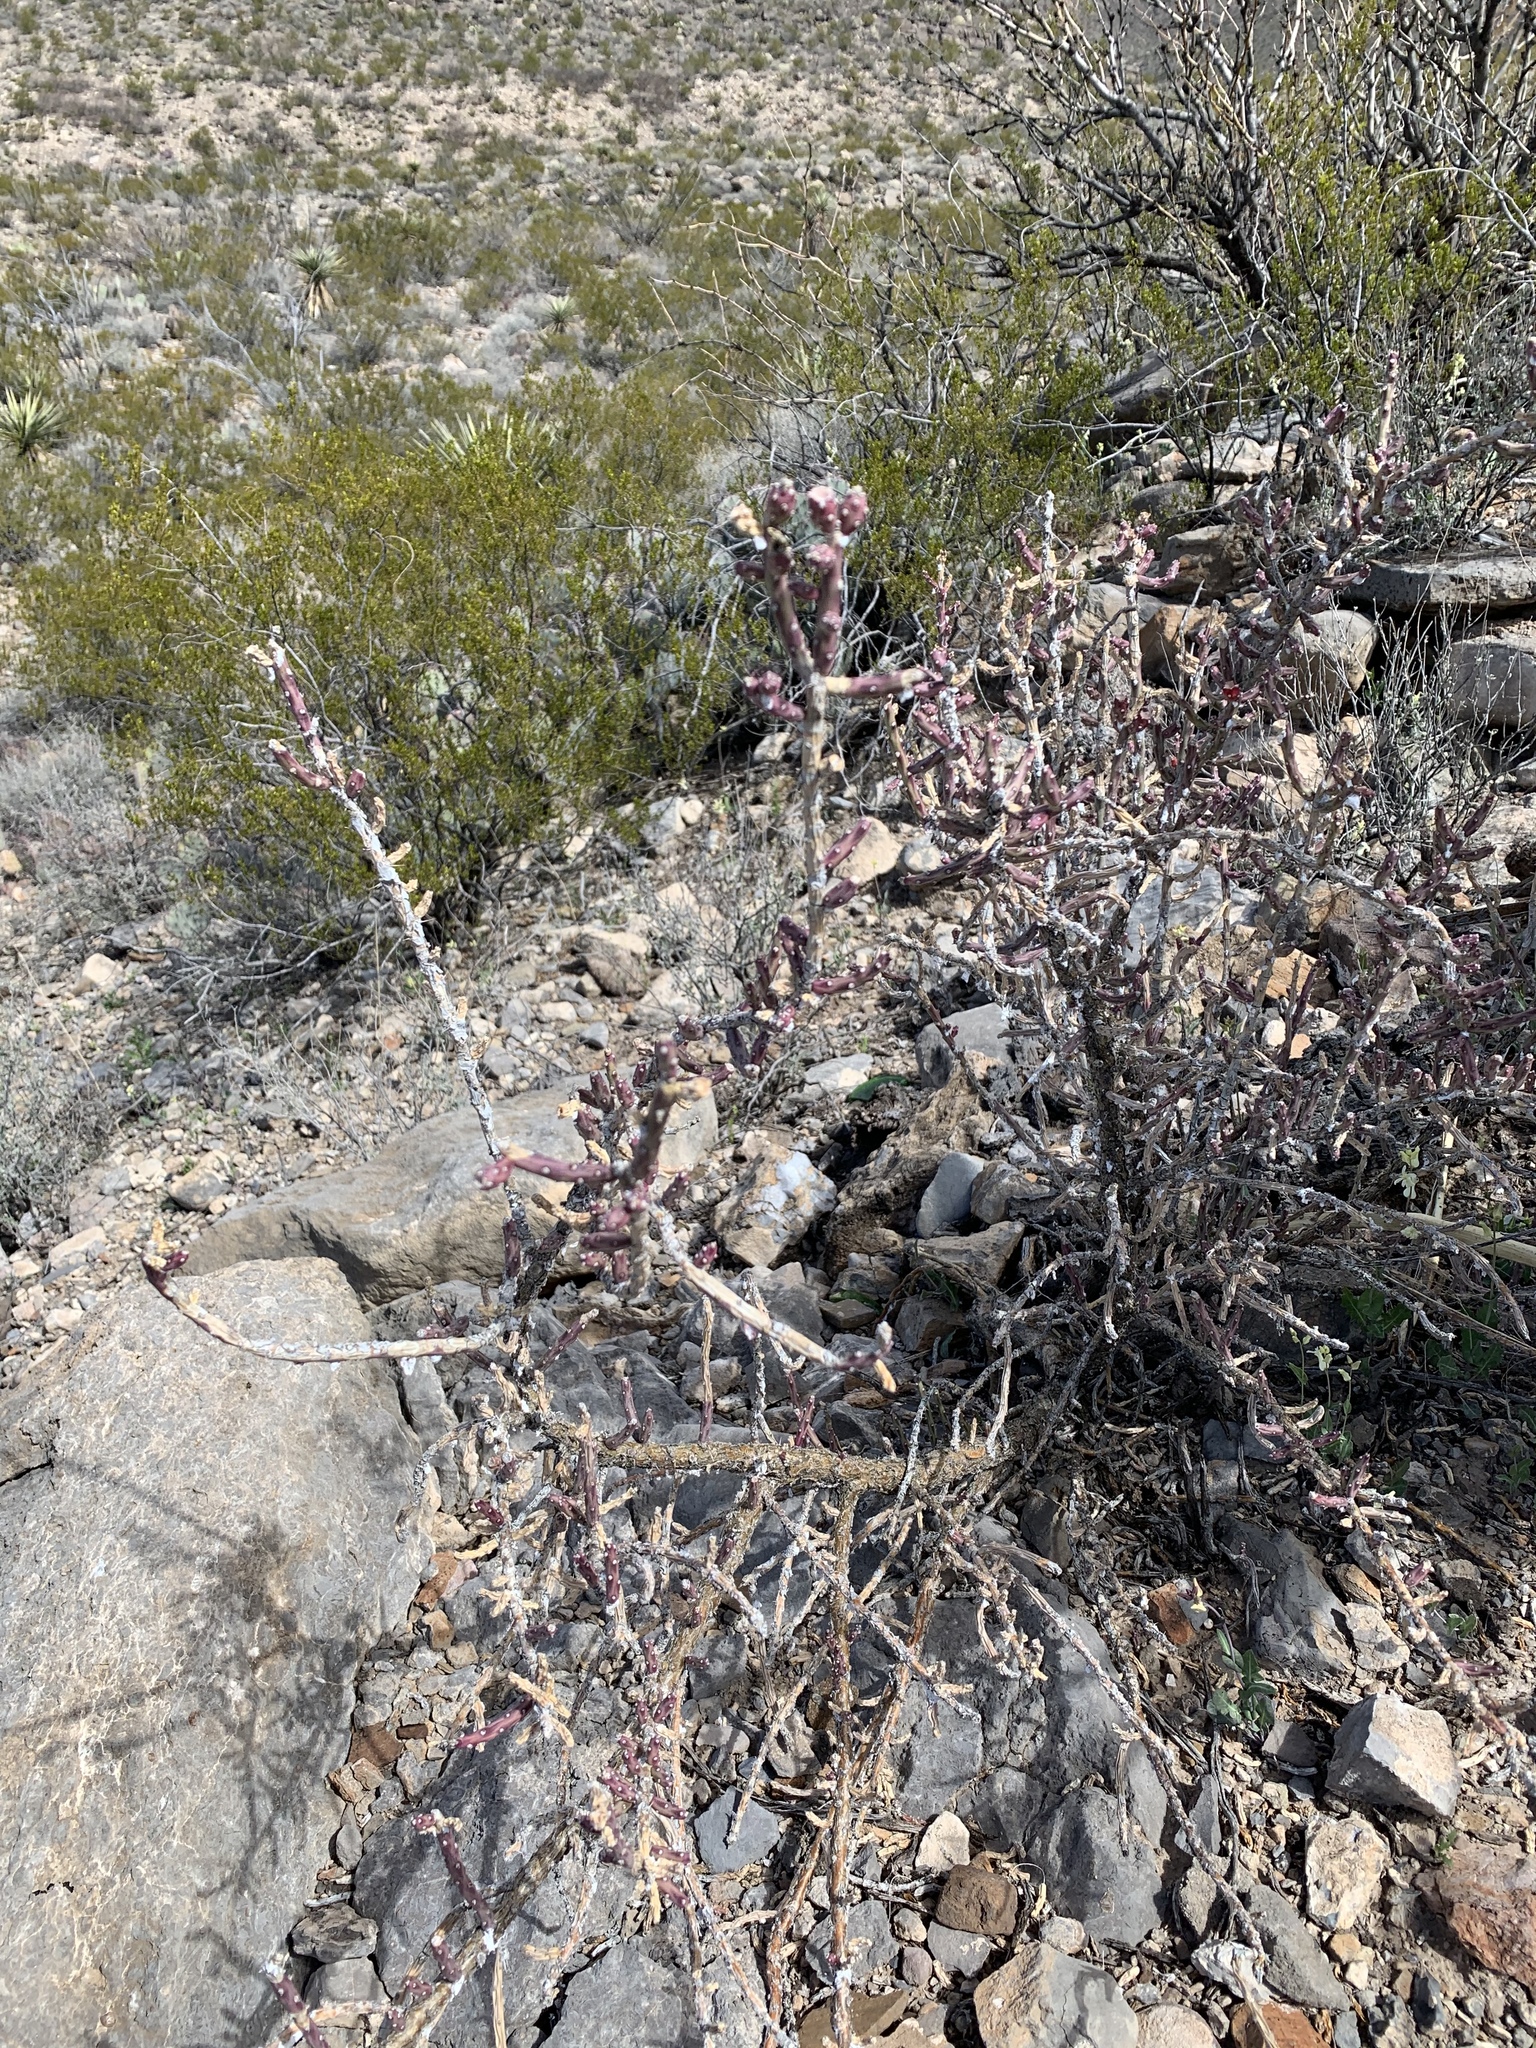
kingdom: Plantae
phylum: Tracheophyta
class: Magnoliopsida
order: Caryophyllales
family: Cactaceae
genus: Cylindropuntia
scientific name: Cylindropuntia leptocaulis
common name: Christmas cactus
